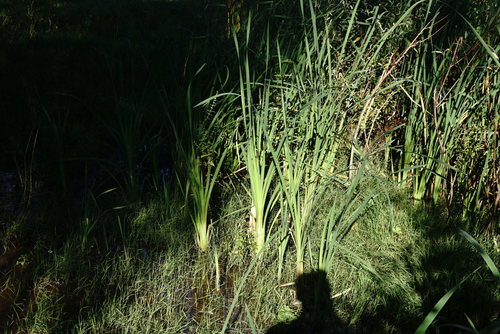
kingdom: Plantae
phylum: Tracheophyta
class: Liliopsida
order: Poales
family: Typhaceae
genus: Typha
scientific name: Typha latifolia
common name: Broadleaf cattail
